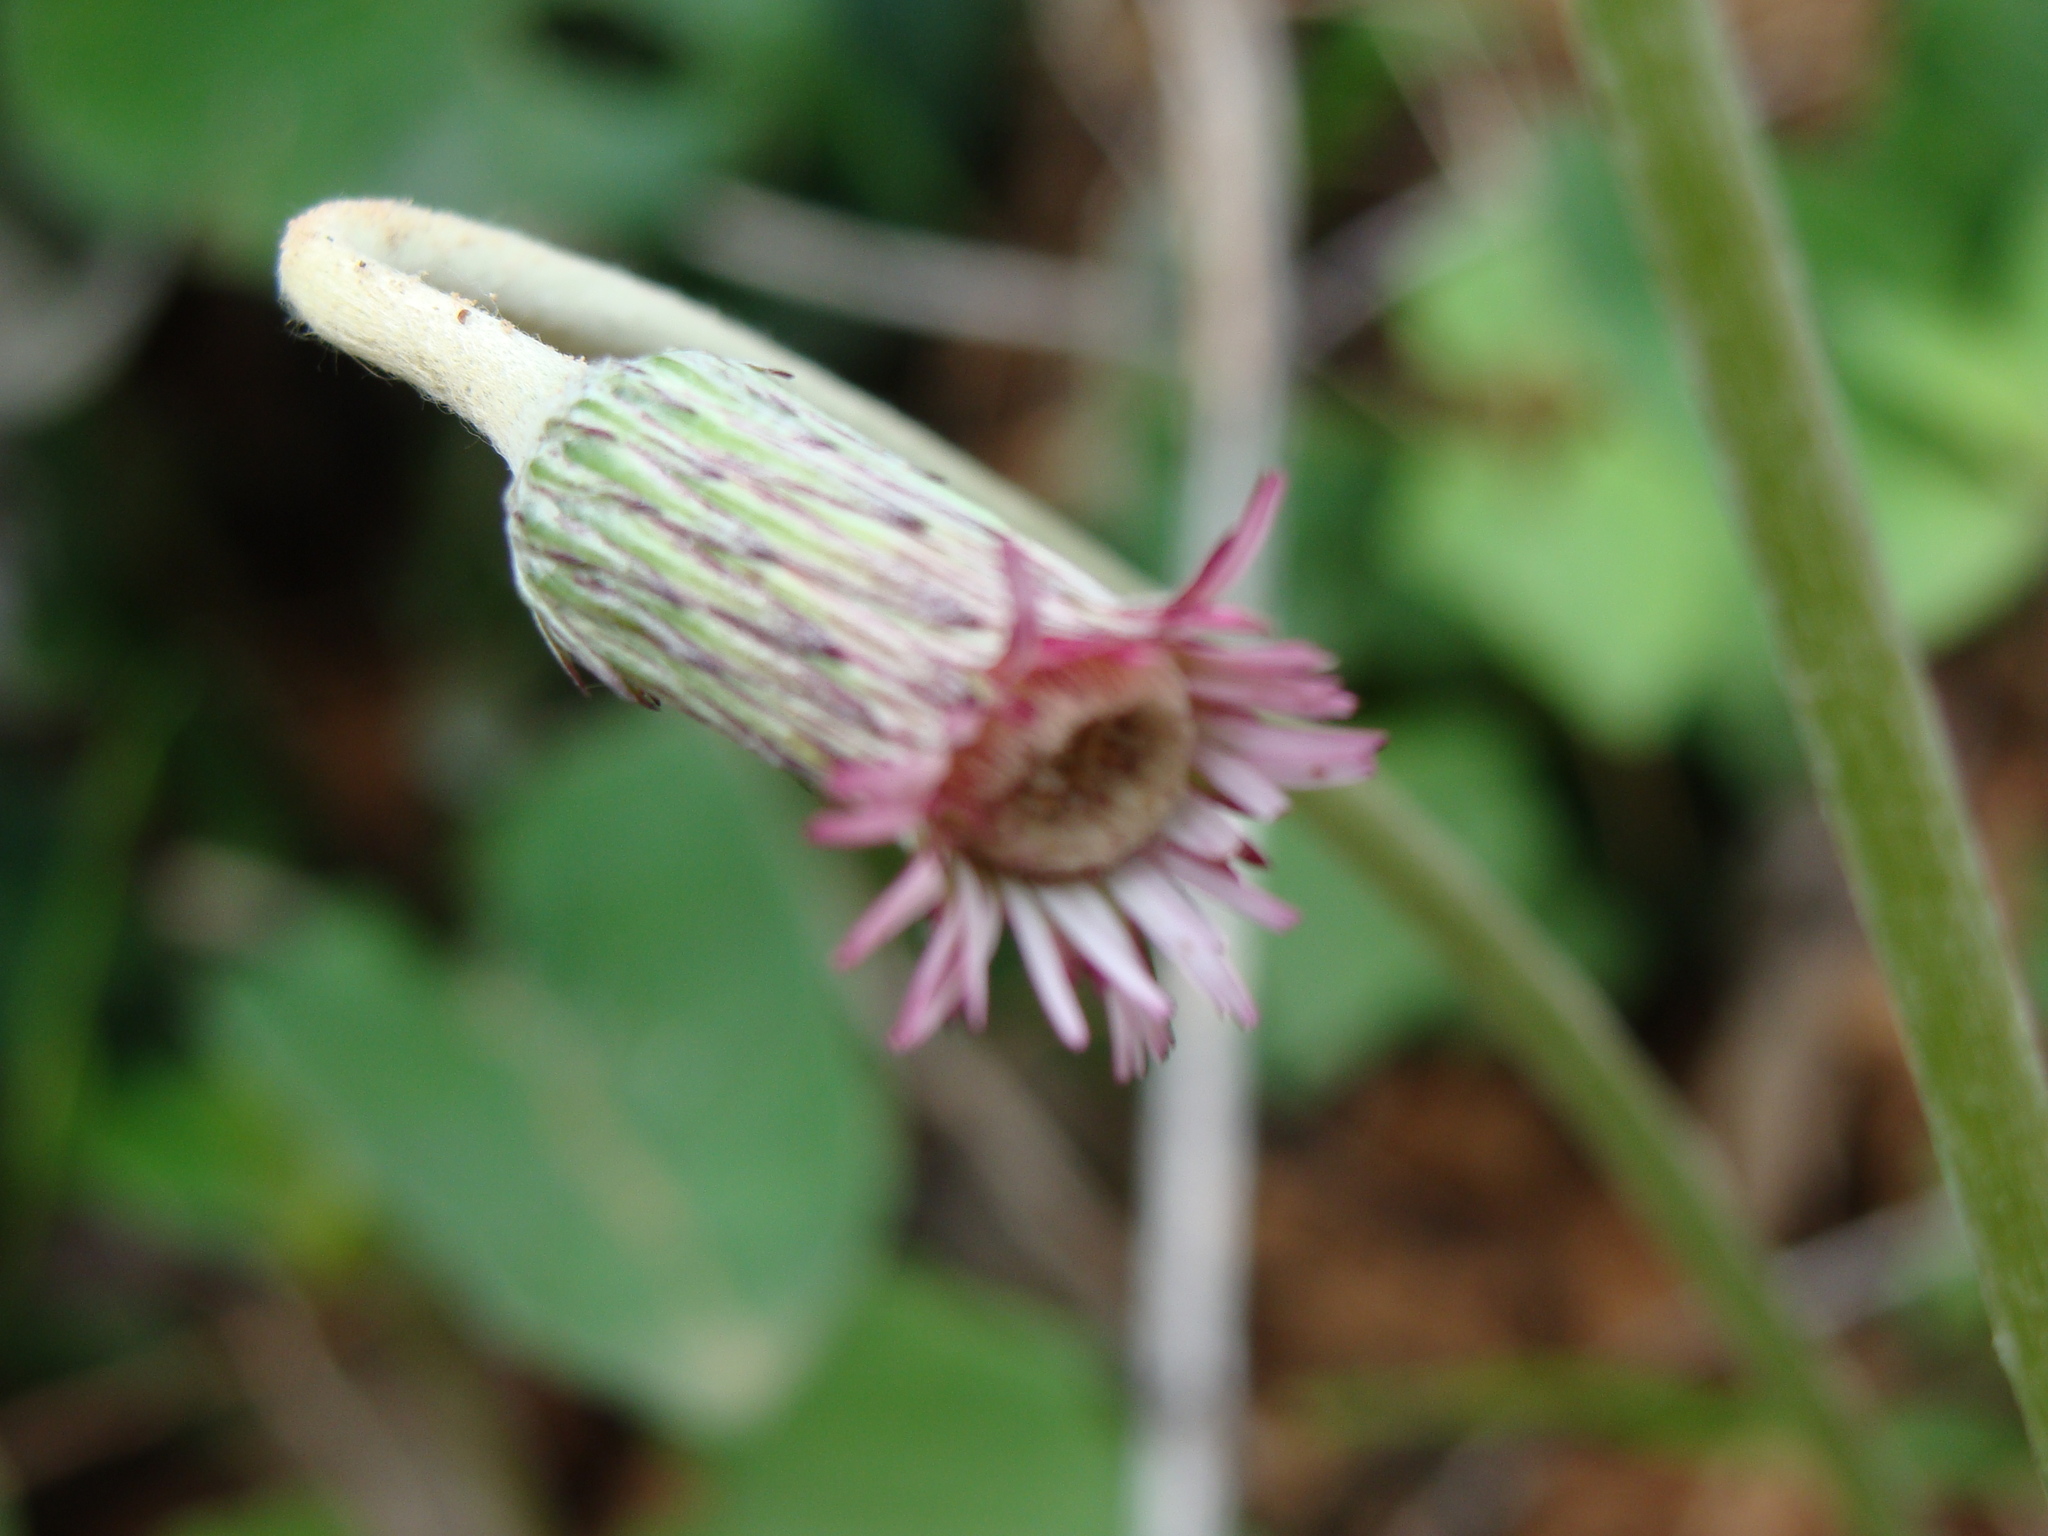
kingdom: Plantae
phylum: Tracheophyta
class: Magnoliopsida
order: Asterales
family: Asteraceae
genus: Chaptalia
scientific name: Chaptalia nutans
